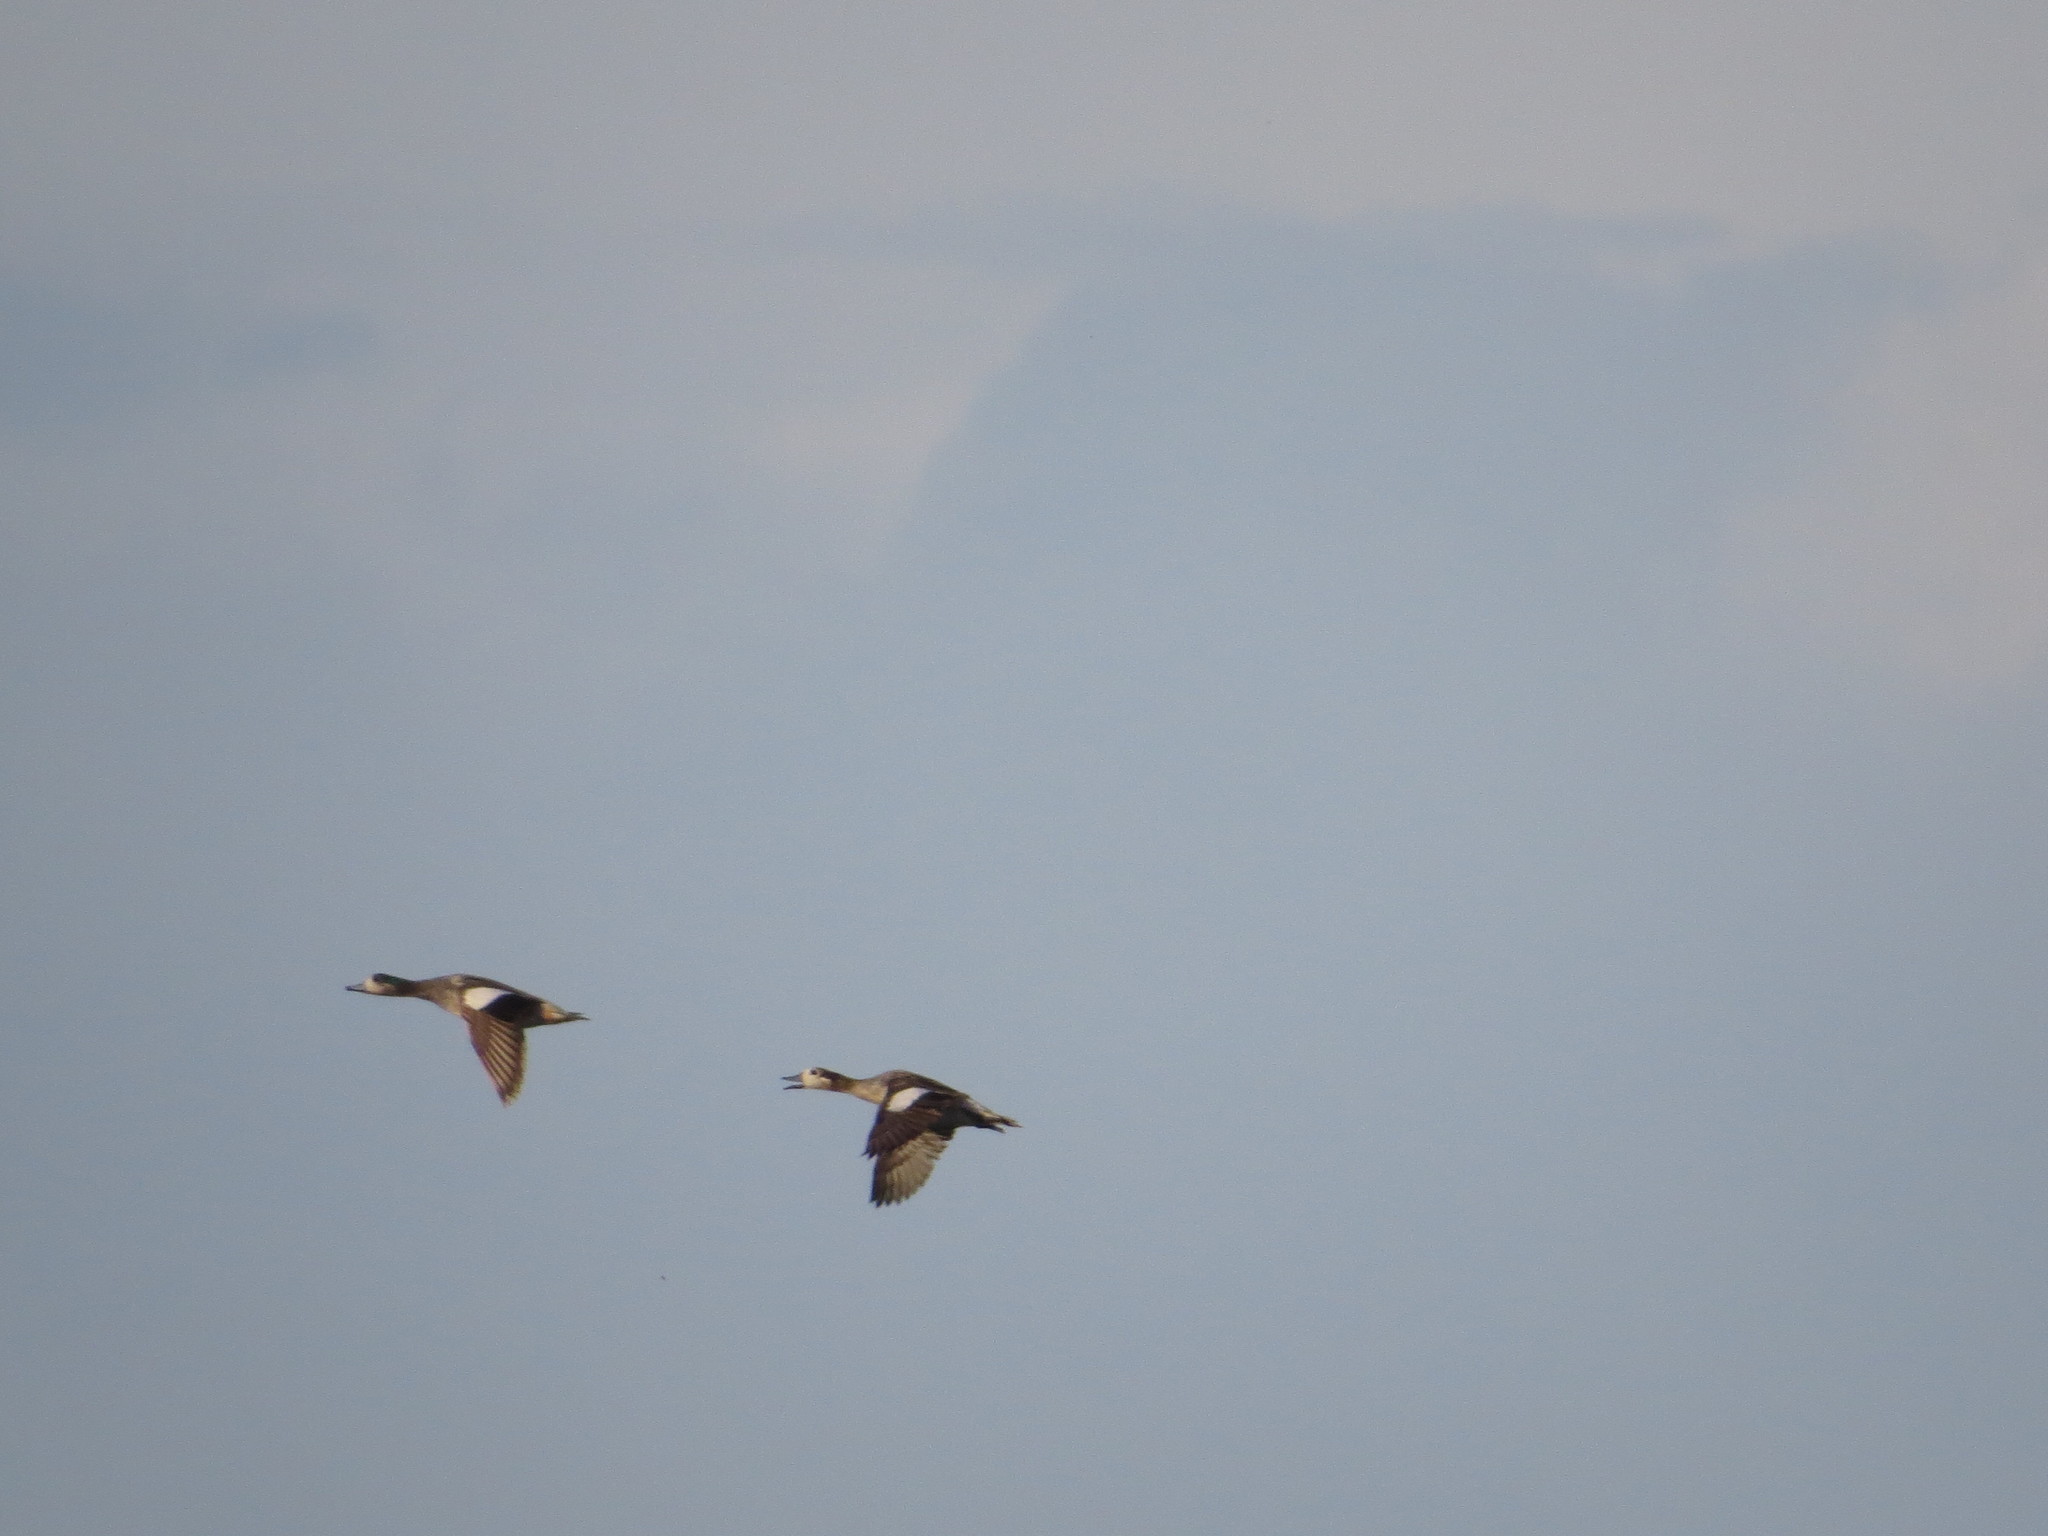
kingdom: Animalia
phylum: Chordata
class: Aves
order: Anseriformes
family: Anatidae
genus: Mareca
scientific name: Mareca sibilatrix
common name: Chiloe wigeon
